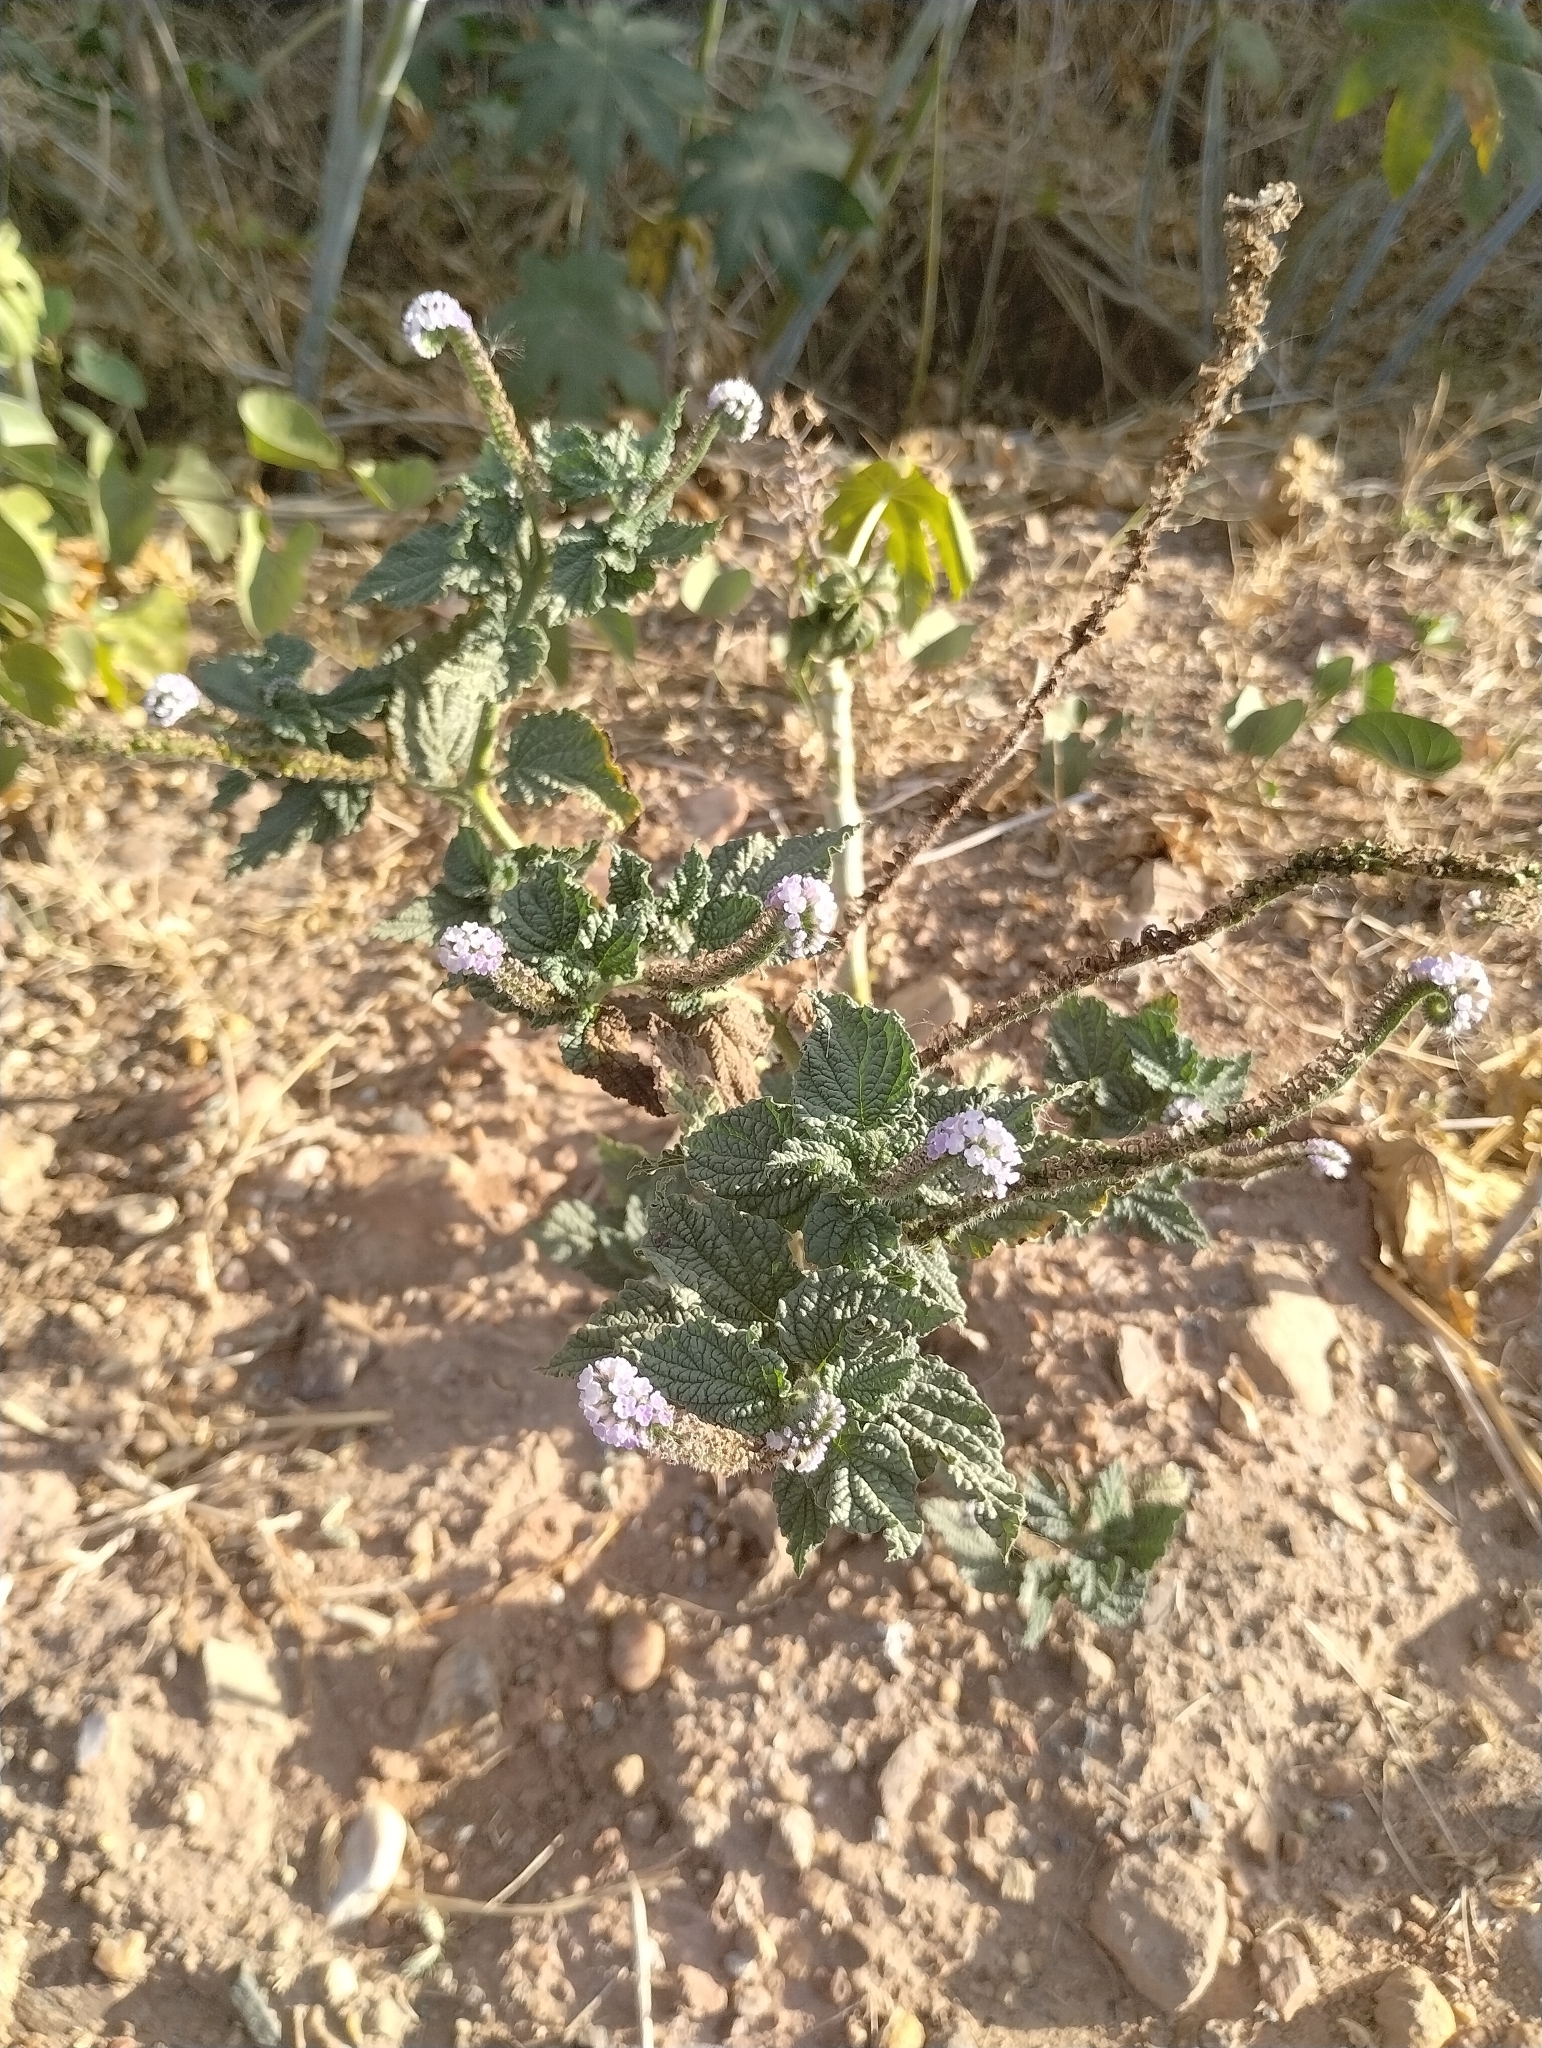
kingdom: Plantae
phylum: Tracheophyta
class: Magnoliopsida
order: Boraginales
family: Heliotropiaceae
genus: Heliotropium
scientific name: Heliotropium elongatum
